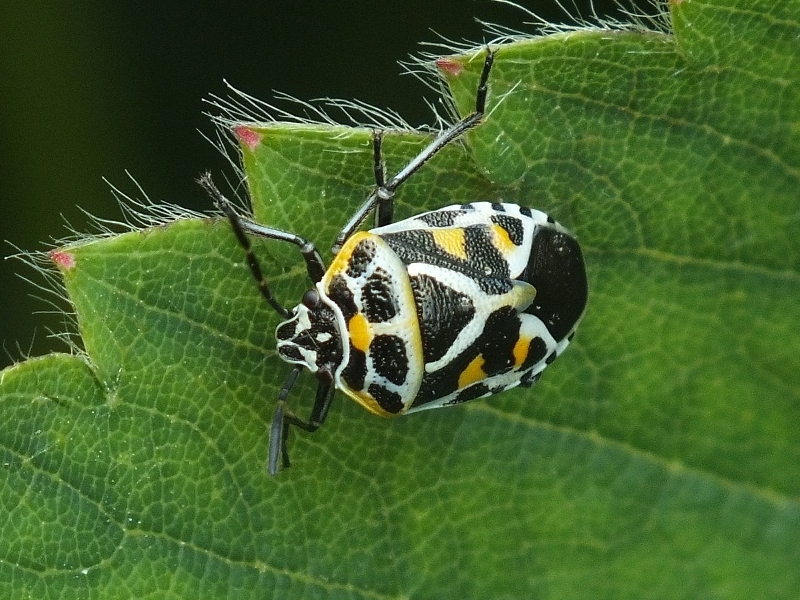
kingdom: Animalia
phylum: Arthropoda
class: Insecta
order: Hemiptera
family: Pentatomidae
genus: Eurydema
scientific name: Eurydema ornata
